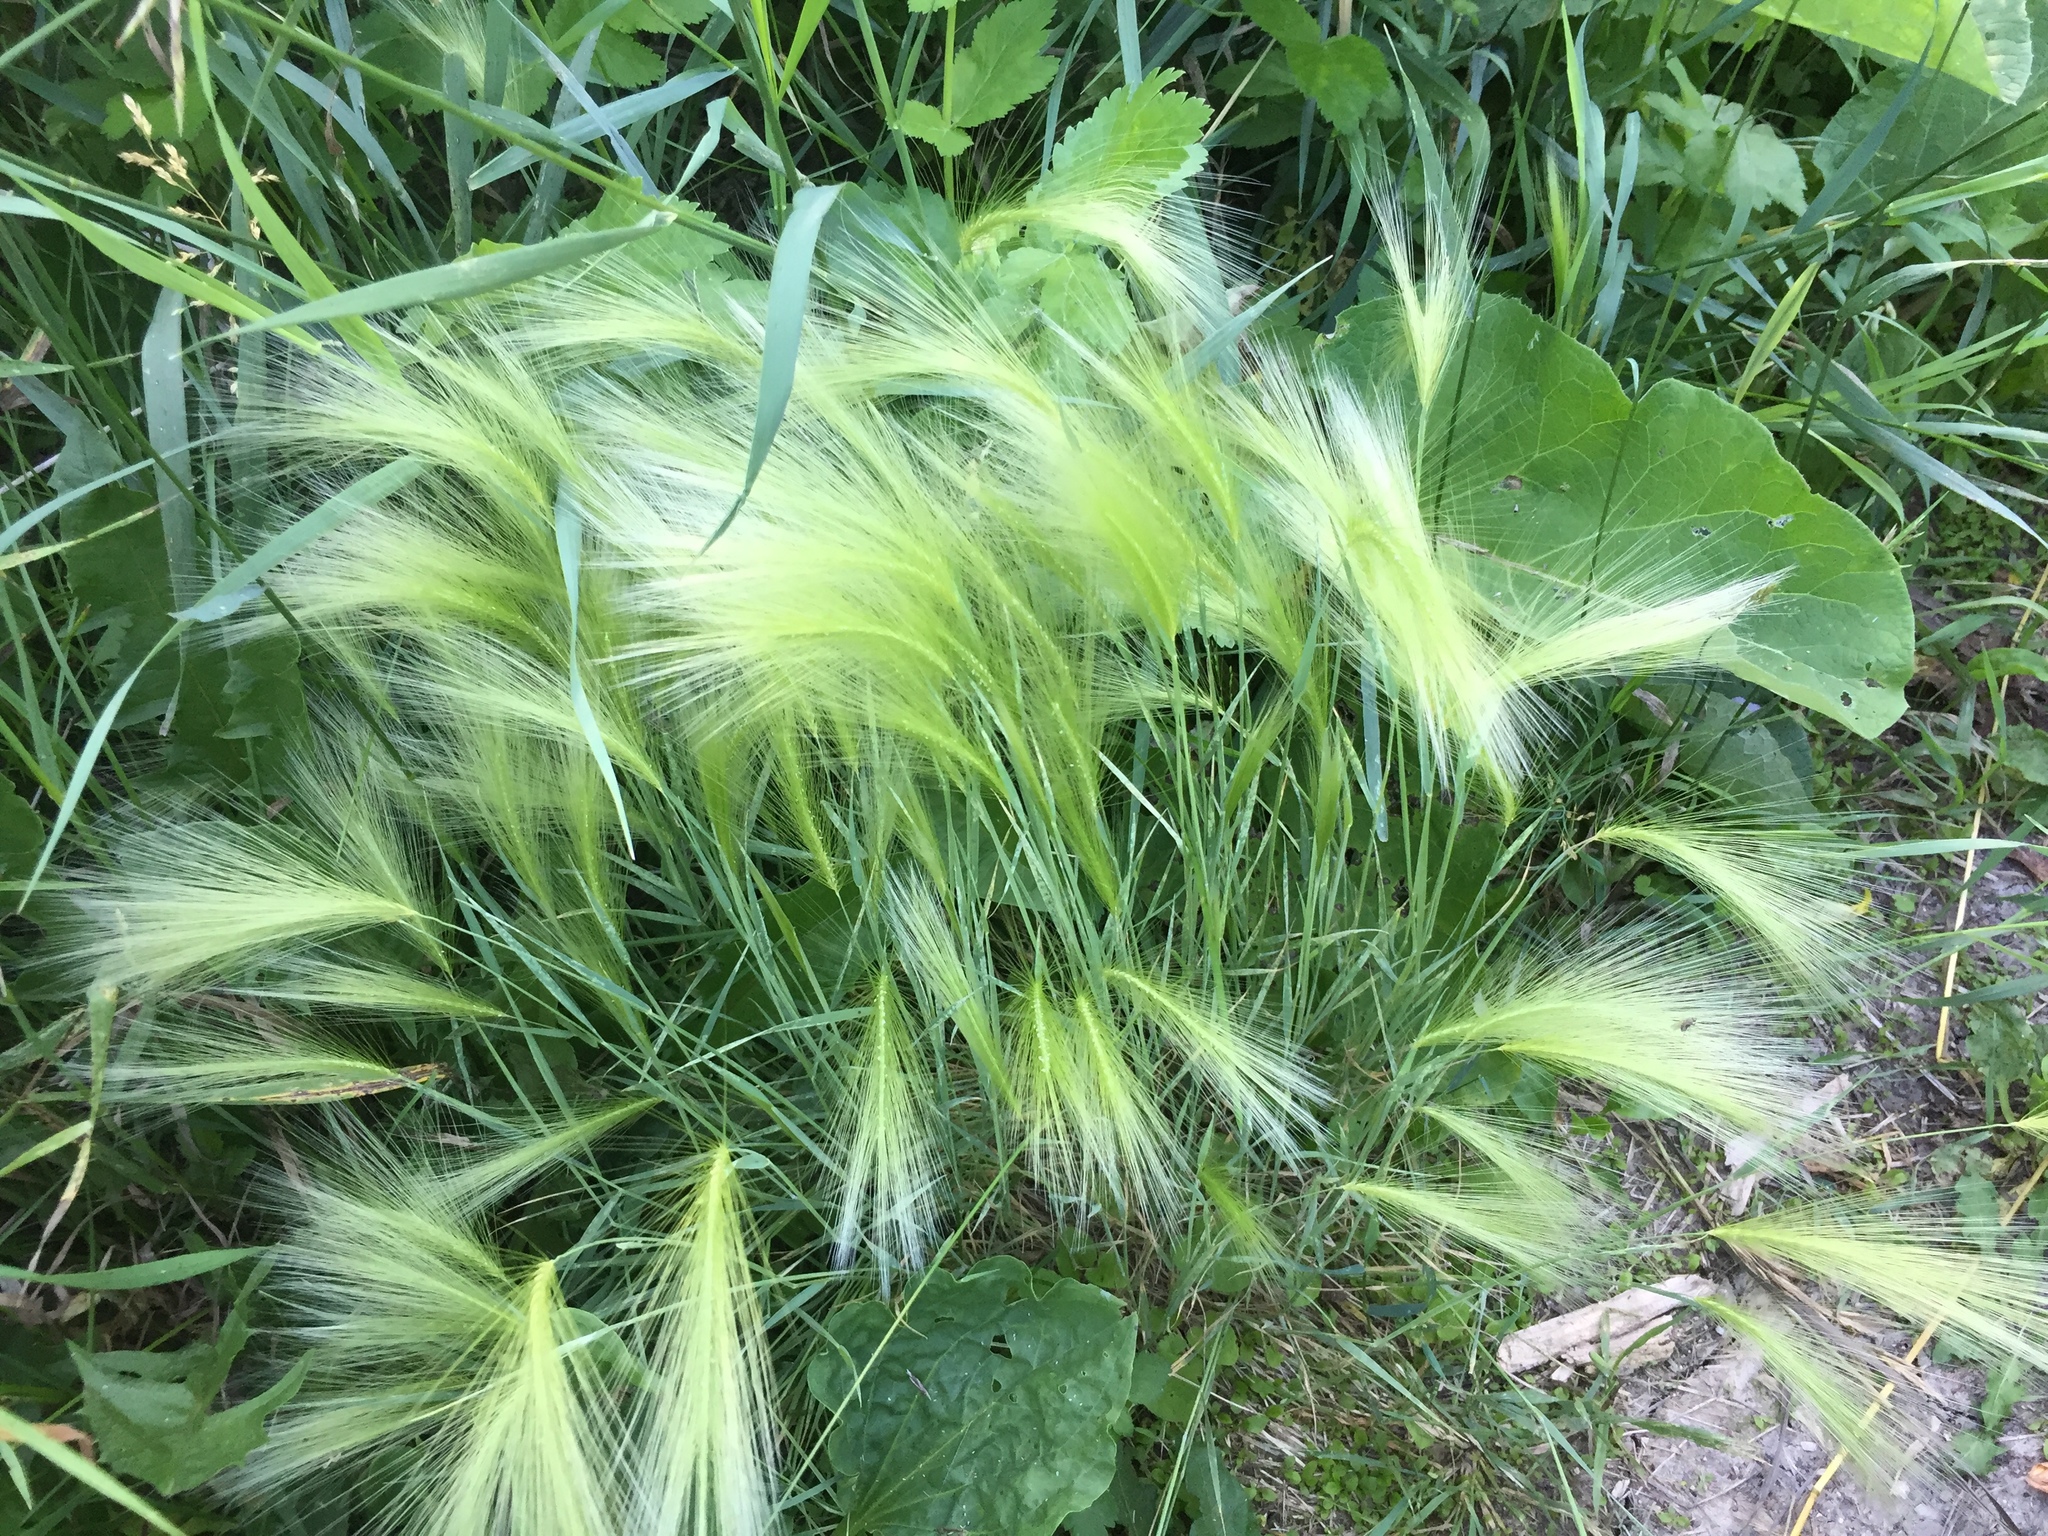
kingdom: Plantae
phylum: Tracheophyta
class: Liliopsida
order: Poales
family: Poaceae
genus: Hordeum
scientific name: Hordeum jubatum
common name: Foxtail barley
